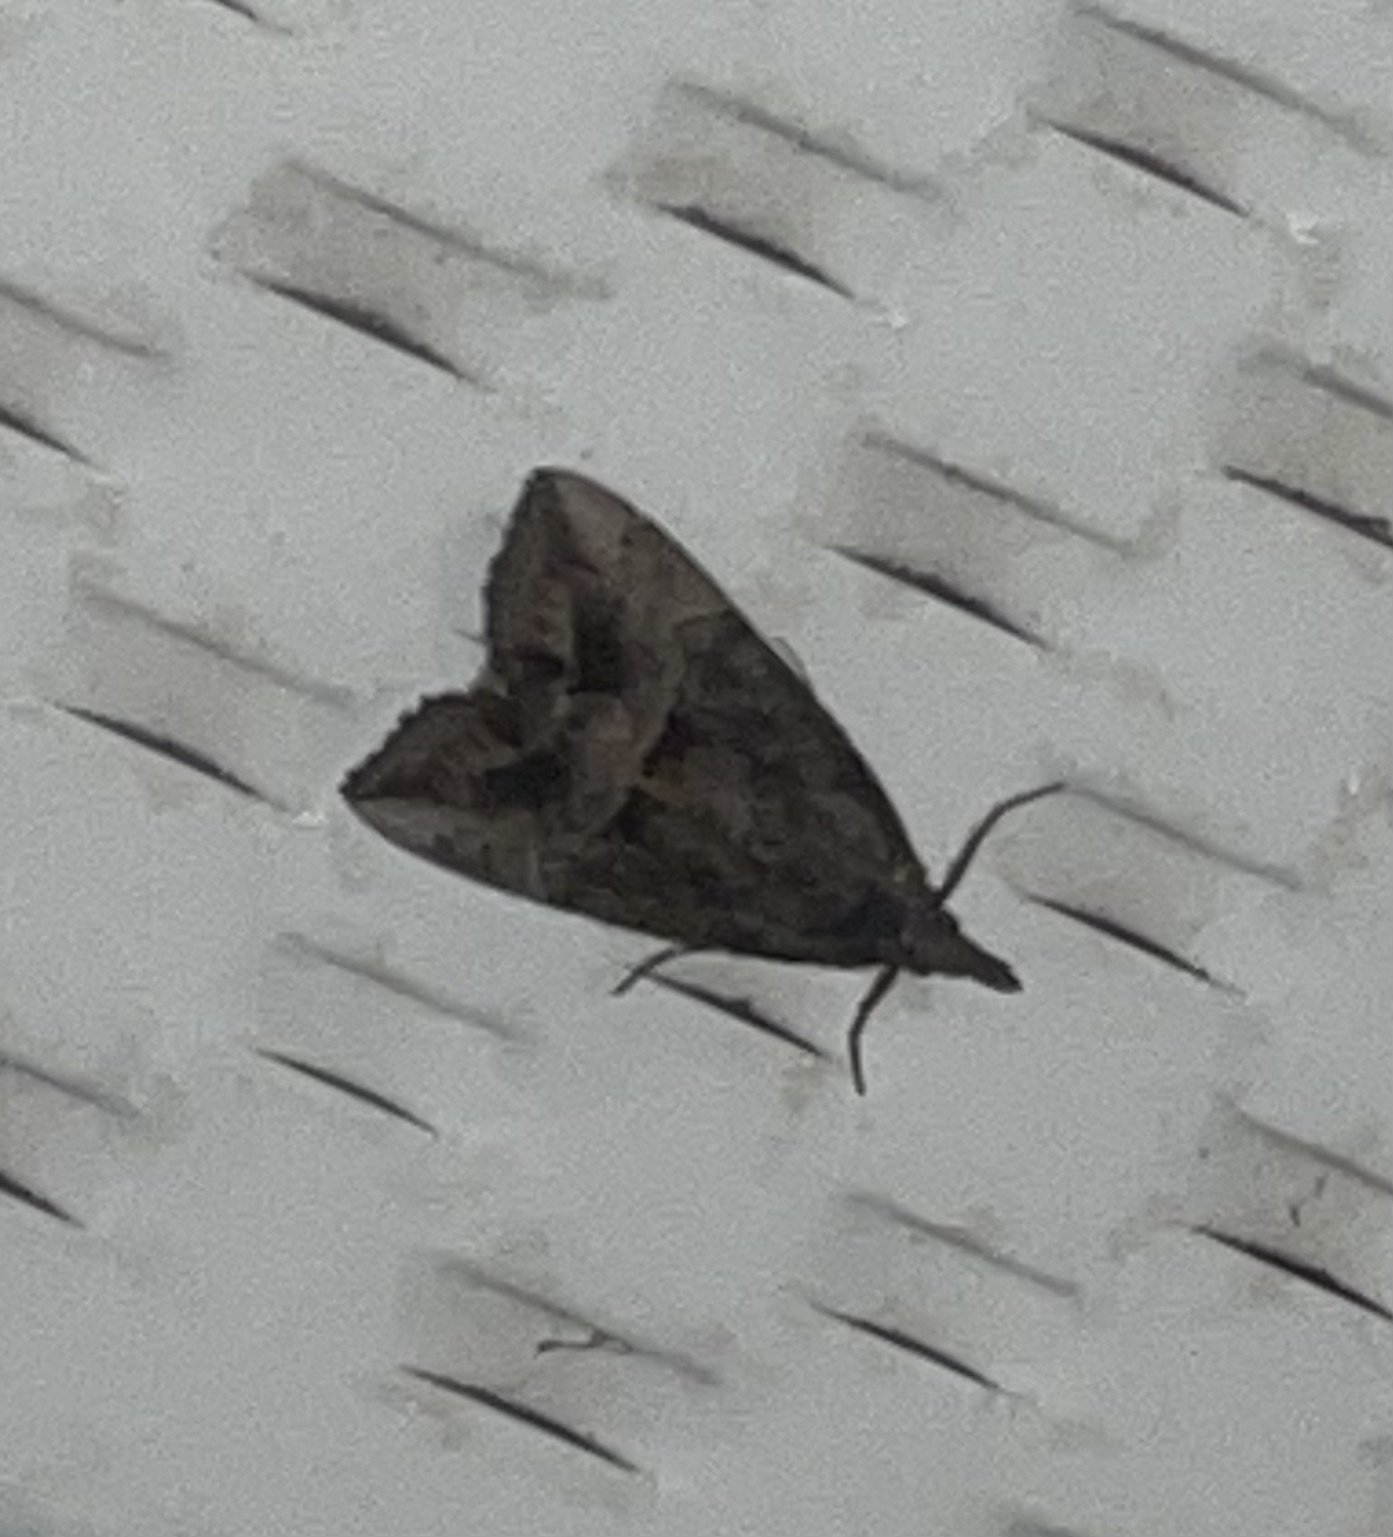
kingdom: Animalia
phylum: Arthropoda
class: Insecta
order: Lepidoptera
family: Erebidae
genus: Hypena
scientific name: Hypena scabra
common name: Green cloverworm
